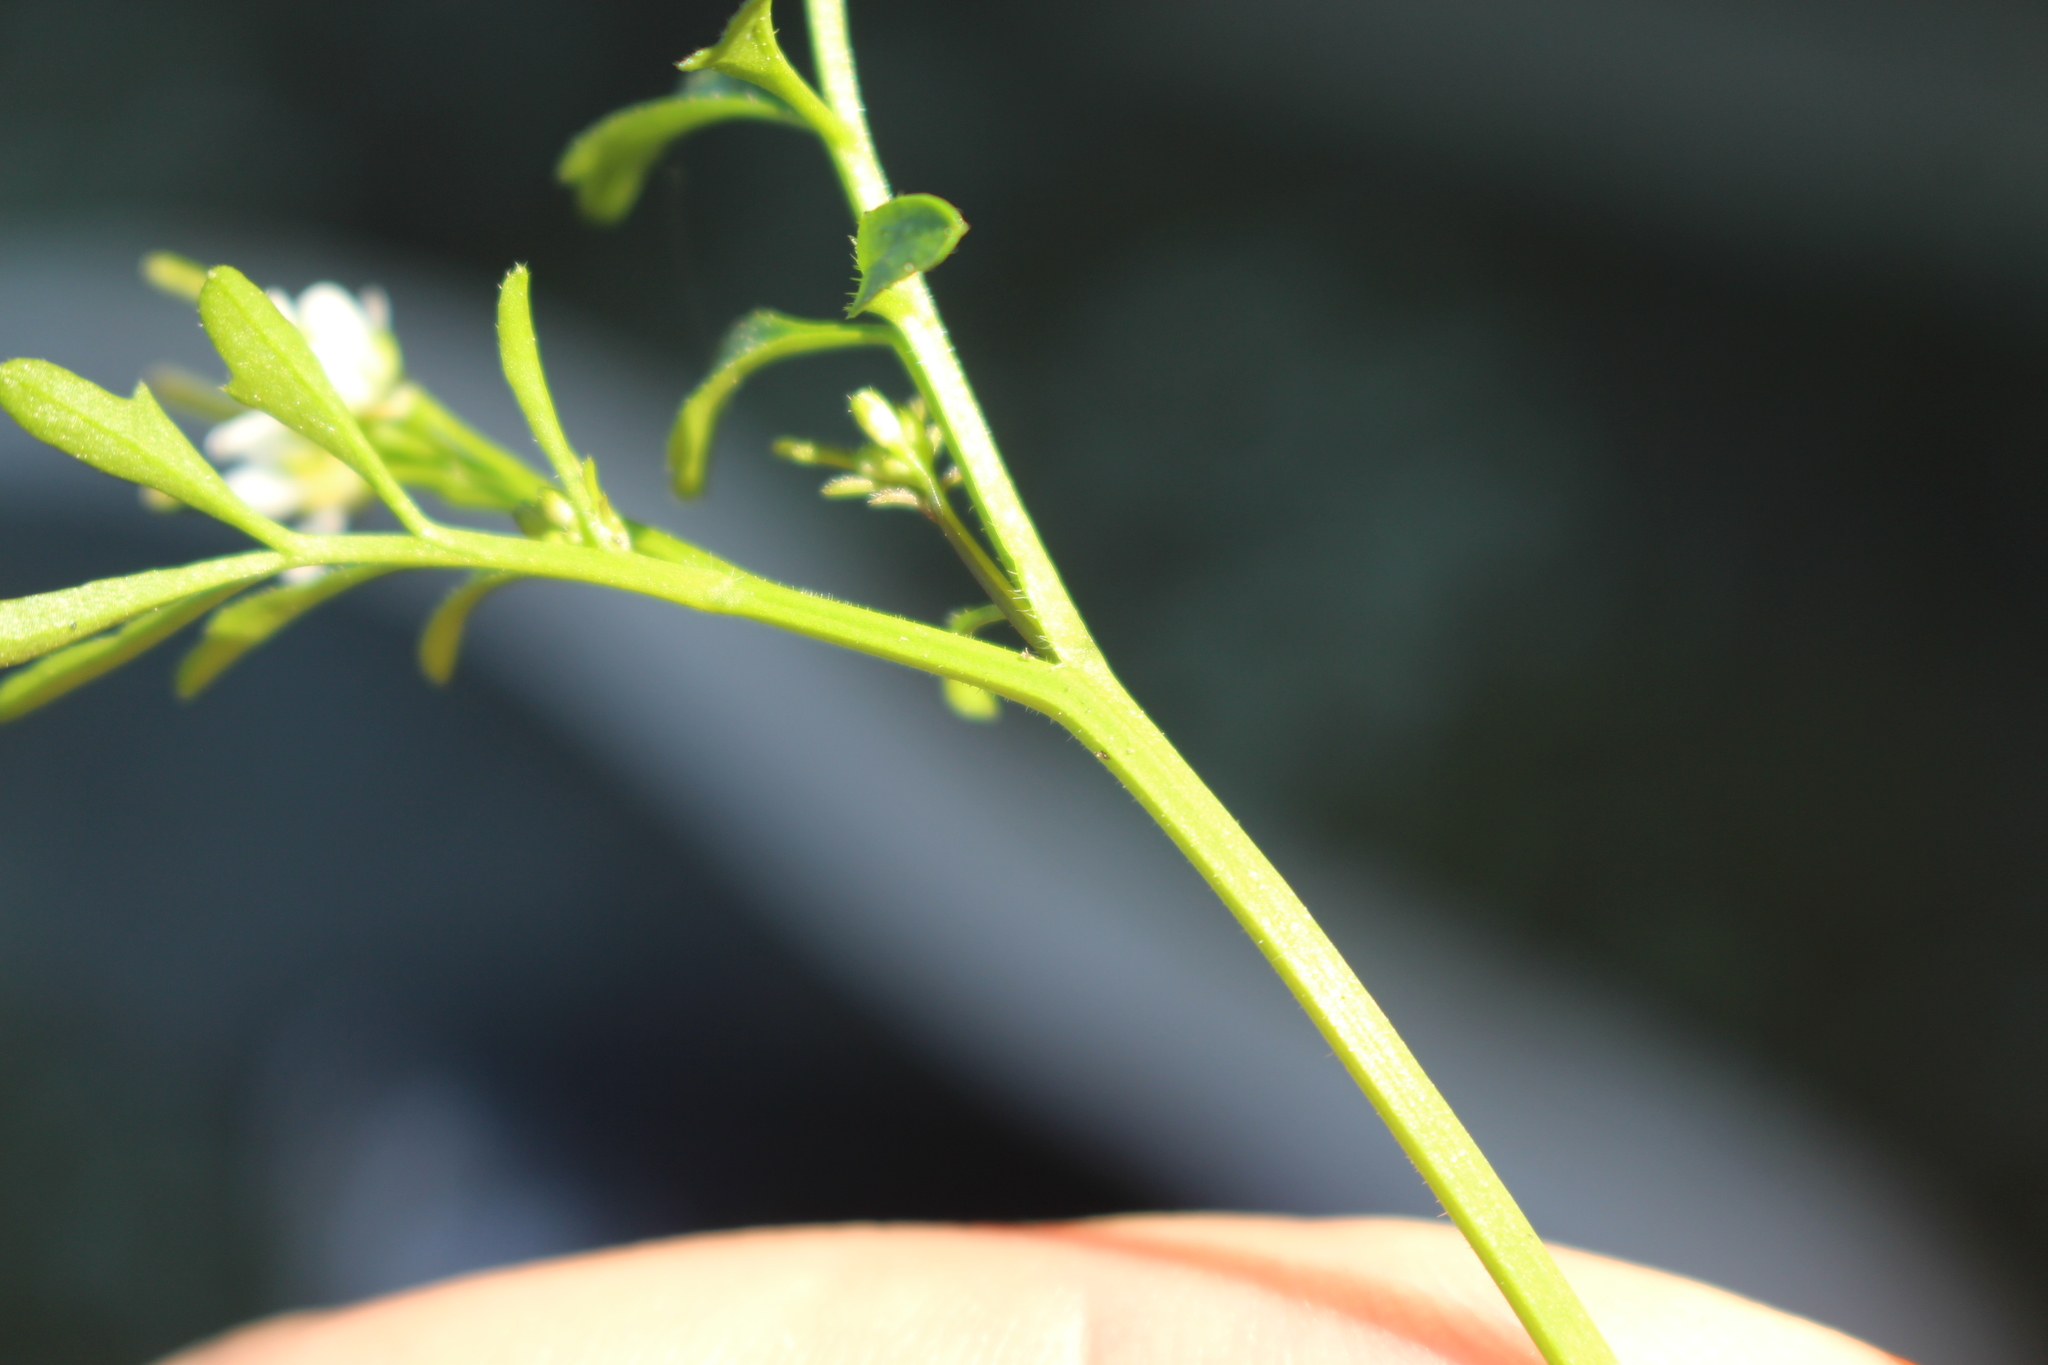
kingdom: Plantae
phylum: Tracheophyta
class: Magnoliopsida
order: Brassicales
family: Brassicaceae
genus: Cardamine
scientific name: Cardamine hirsuta
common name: Hairy bittercress
